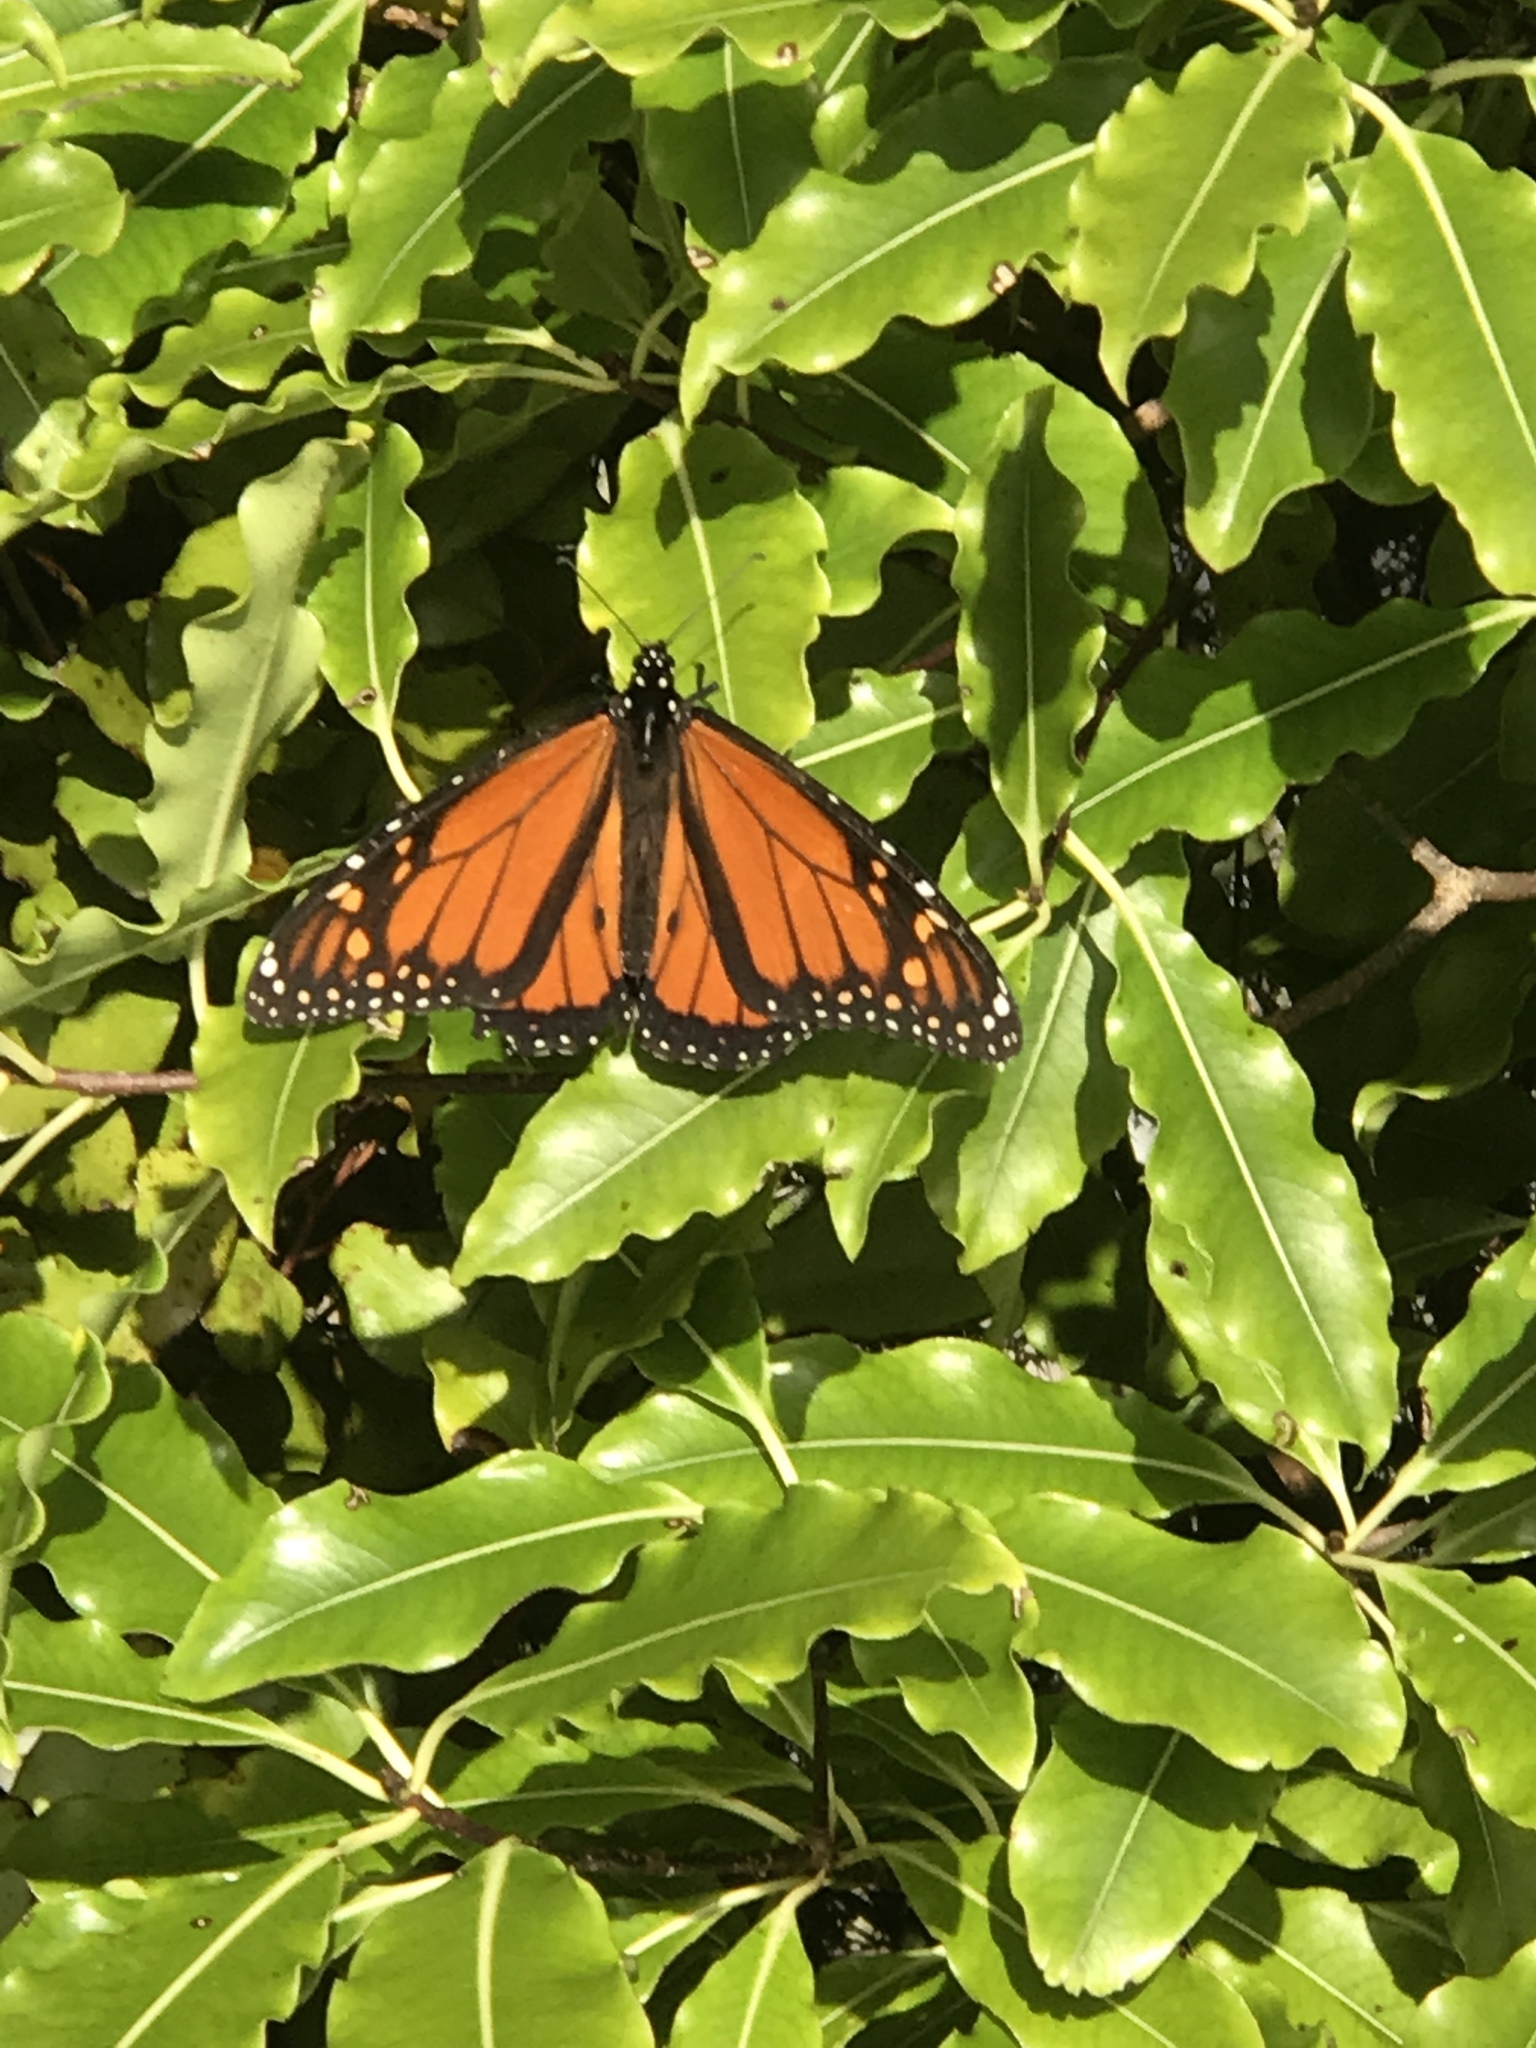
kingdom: Animalia
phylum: Arthropoda
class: Insecta
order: Lepidoptera
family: Nymphalidae
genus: Danaus
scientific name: Danaus plexippus
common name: Monarch
